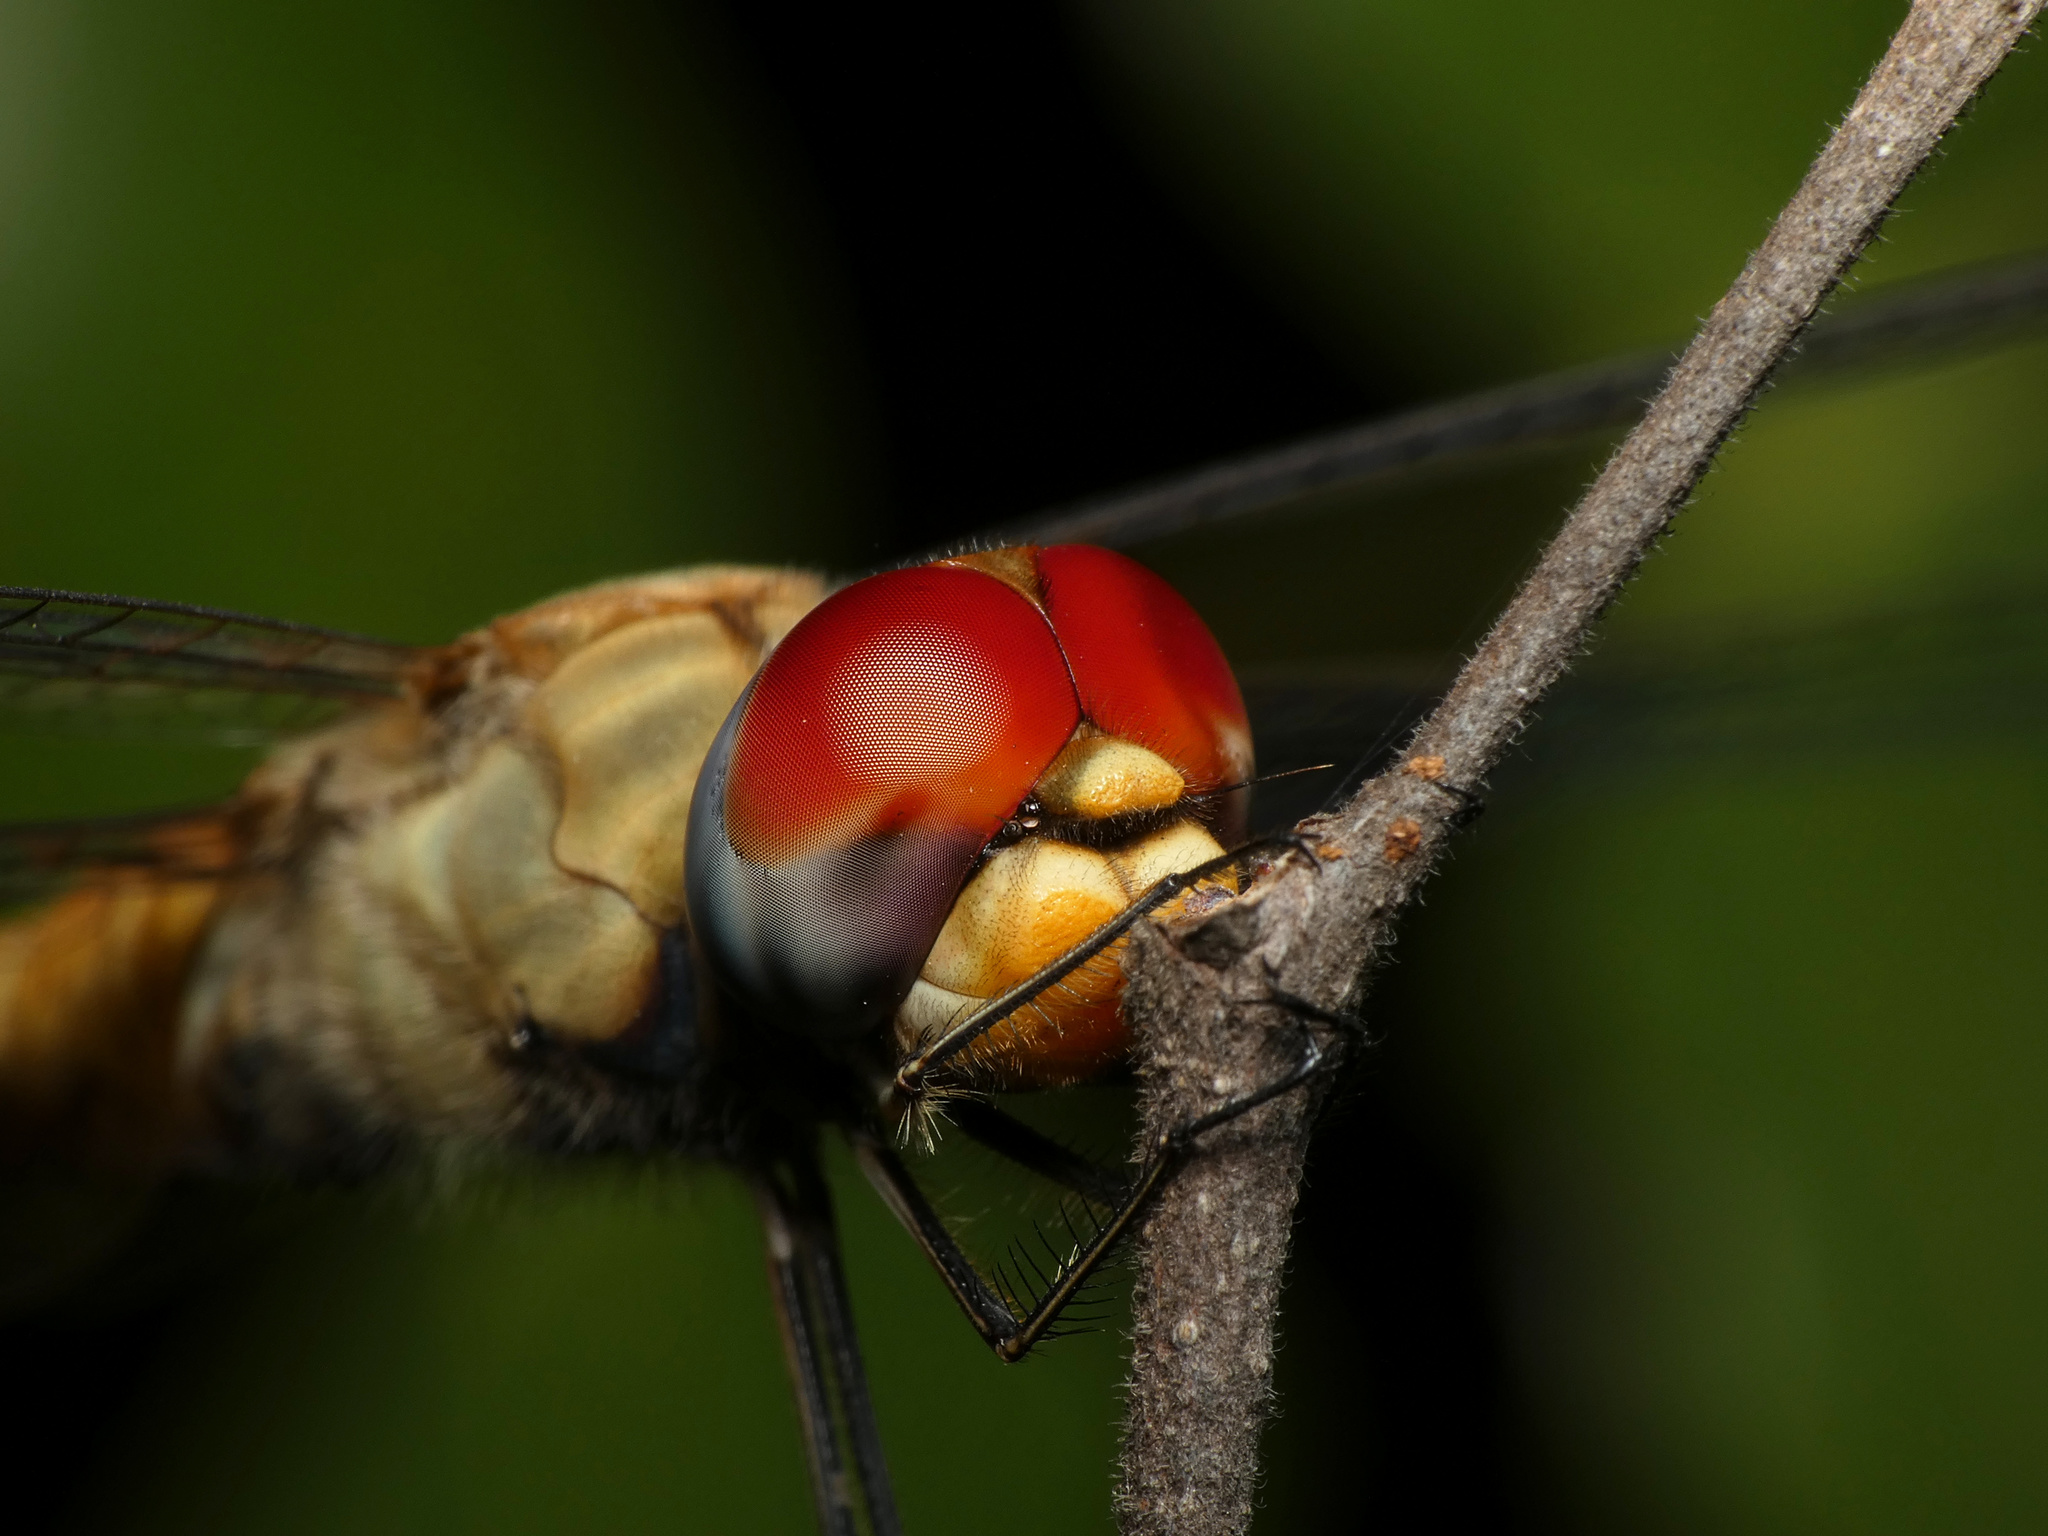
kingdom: Animalia
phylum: Arthropoda
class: Insecta
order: Odonata
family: Libellulidae
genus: Pantala
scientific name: Pantala flavescens
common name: Wandering glider
